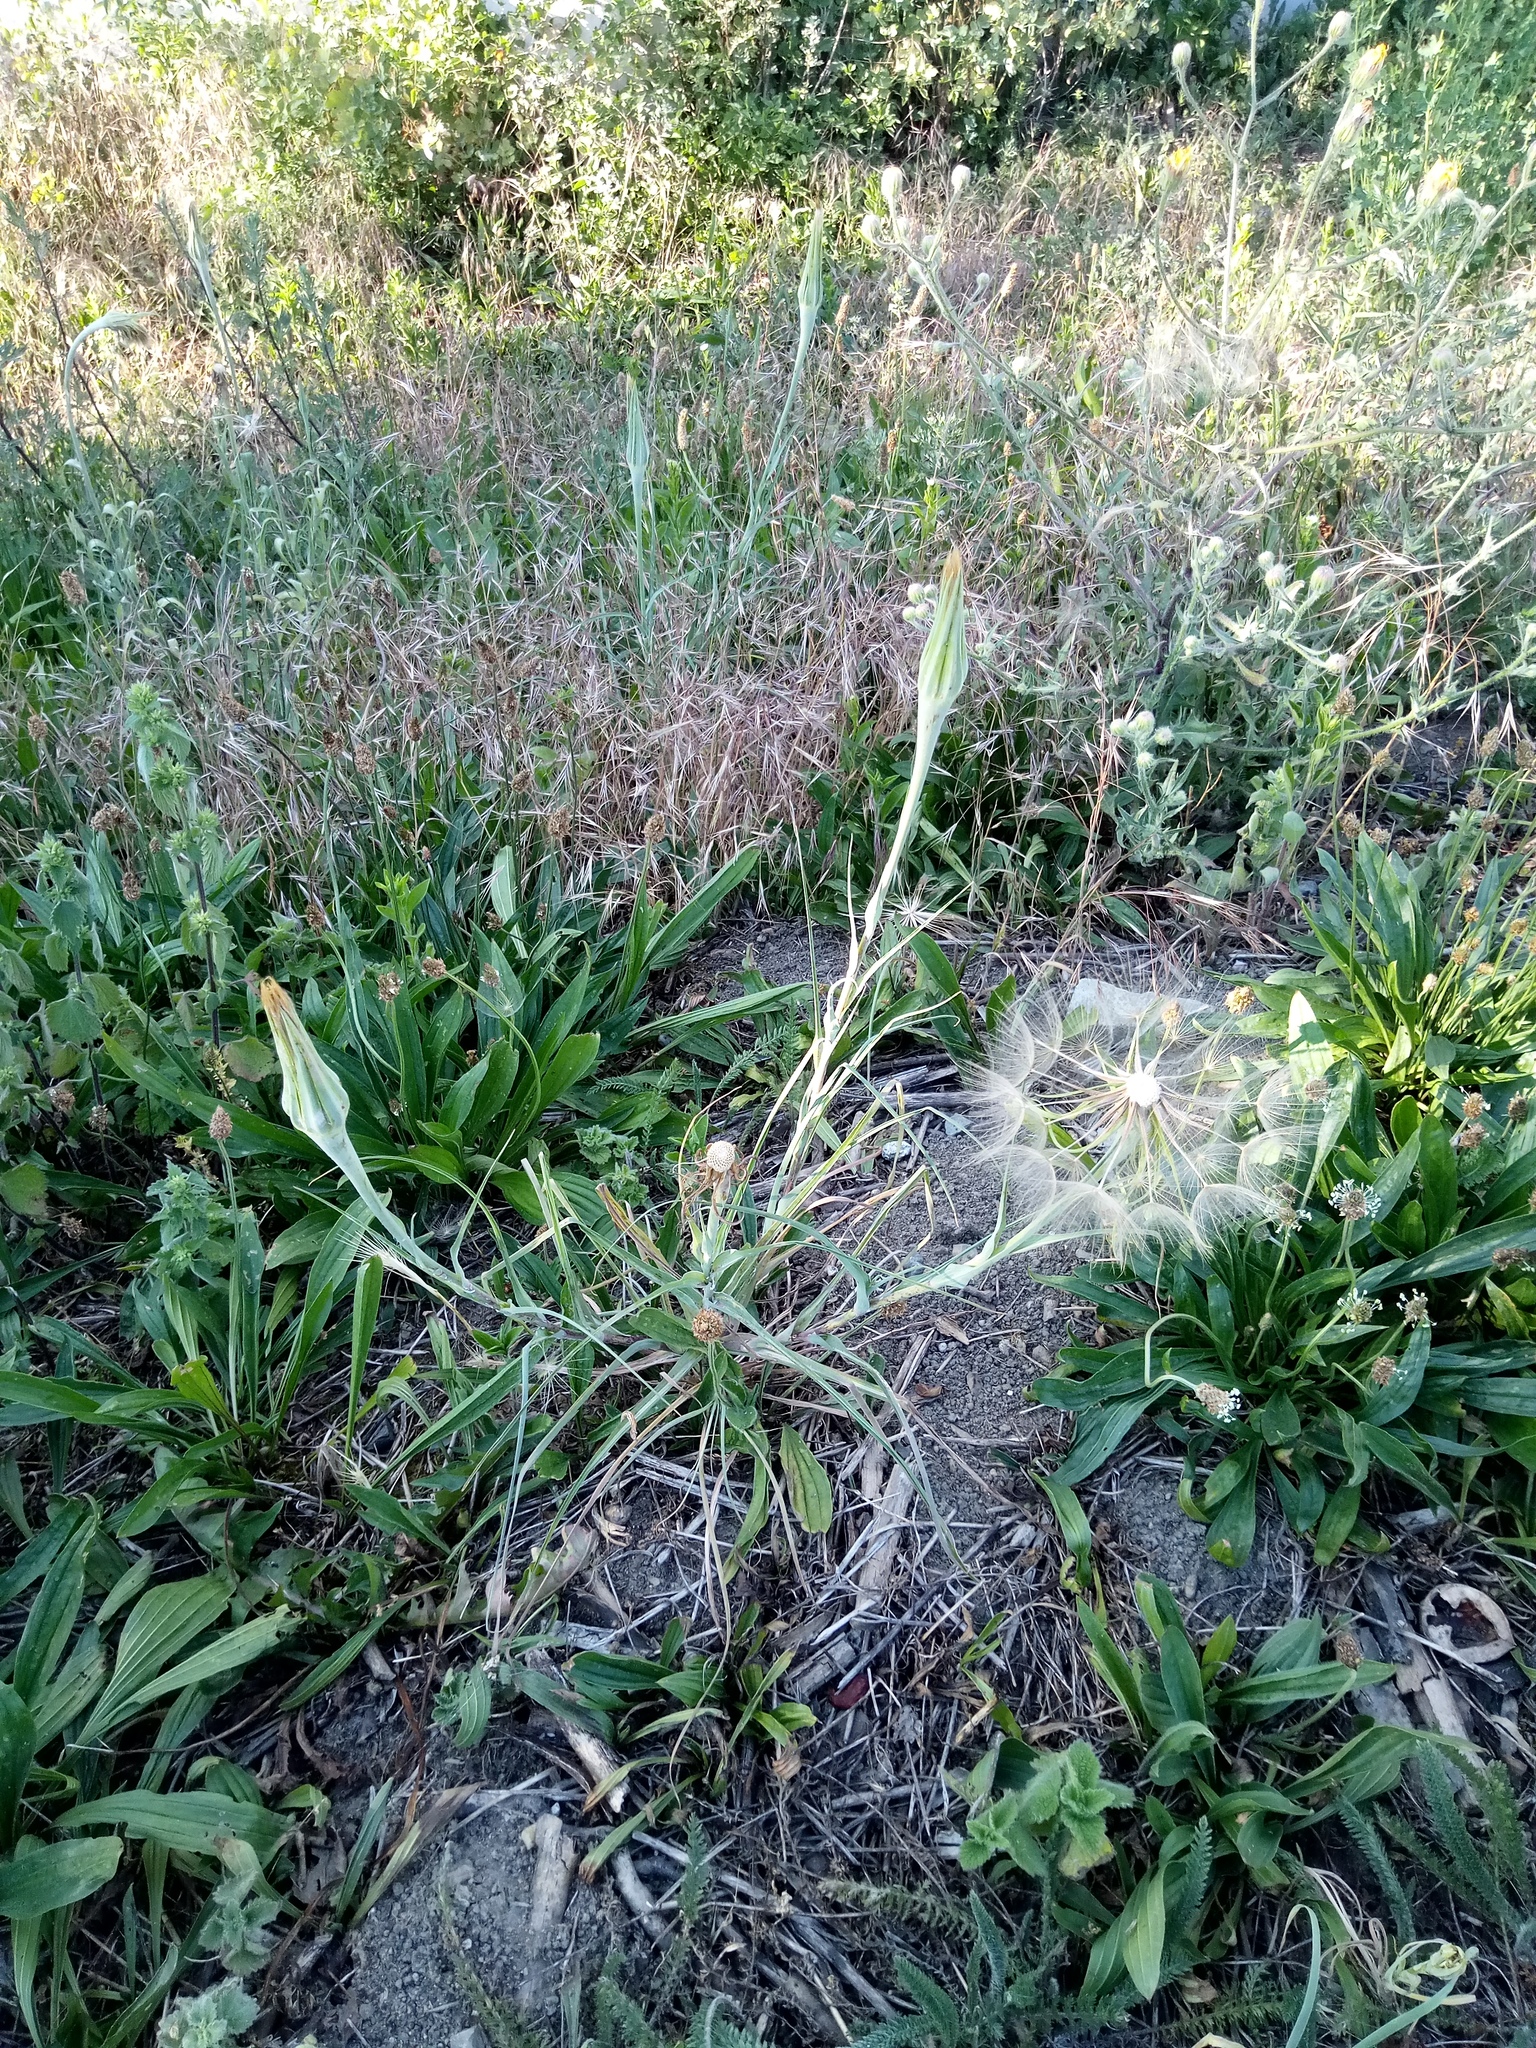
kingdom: Plantae
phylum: Tracheophyta
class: Magnoliopsida
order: Asterales
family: Asteraceae
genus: Tragopogon
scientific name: Tragopogon dubius
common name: Yellow salsify
